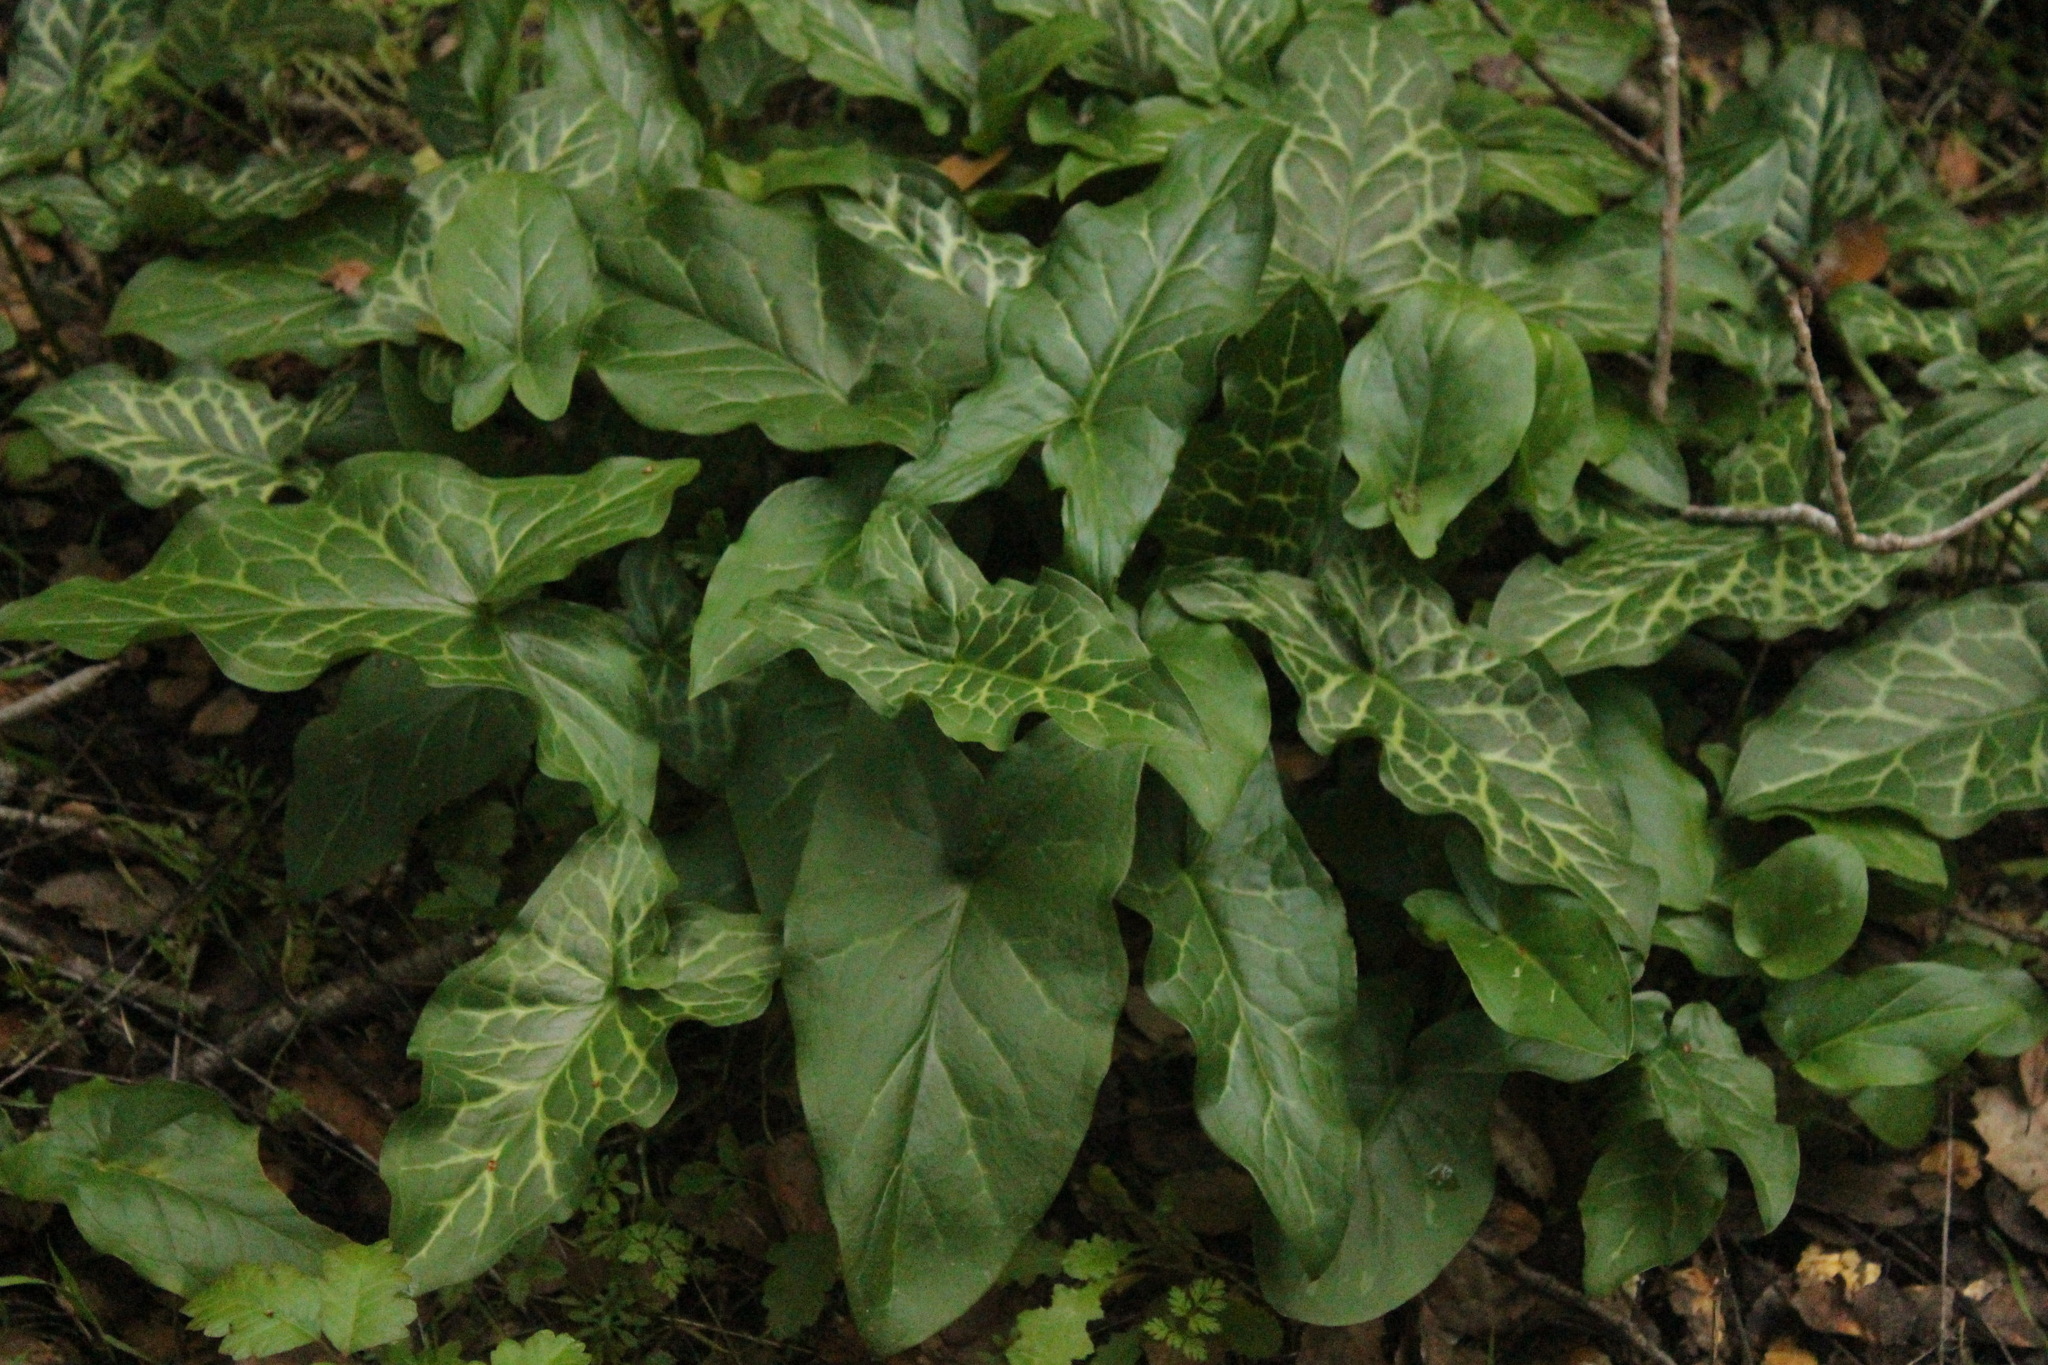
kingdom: Plantae
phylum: Tracheophyta
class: Liliopsida
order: Alismatales
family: Araceae
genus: Arum
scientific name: Arum italicum
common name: Italian lords-and-ladies
